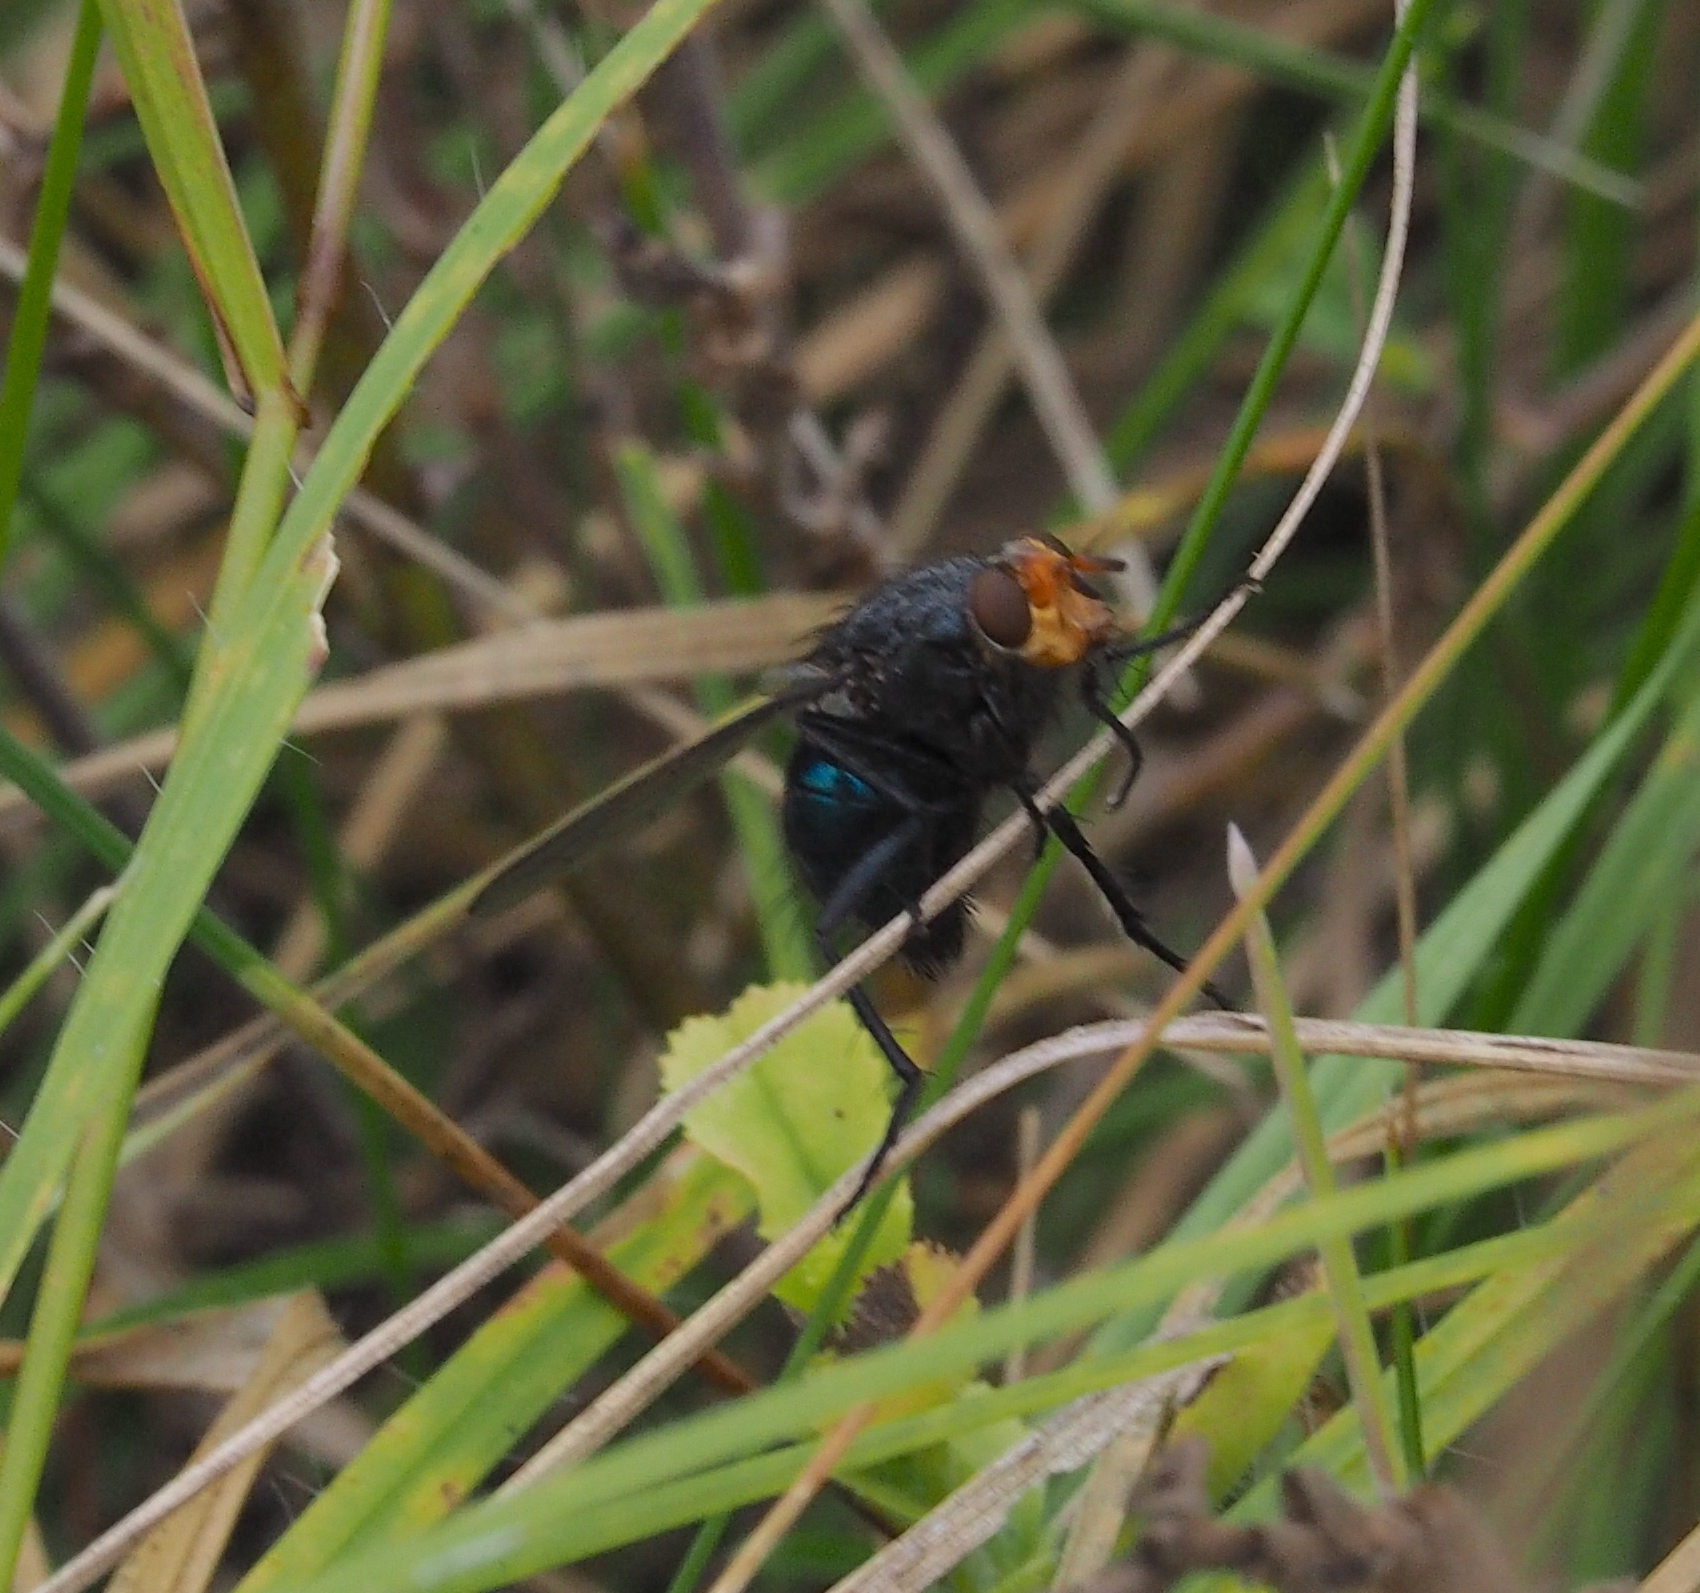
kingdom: Animalia
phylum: Arthropoda
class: Insecta
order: Diptera
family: Calliphoridae
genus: Cynomya
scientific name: Cynomya mortuorum
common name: Bluebottle blow fly
